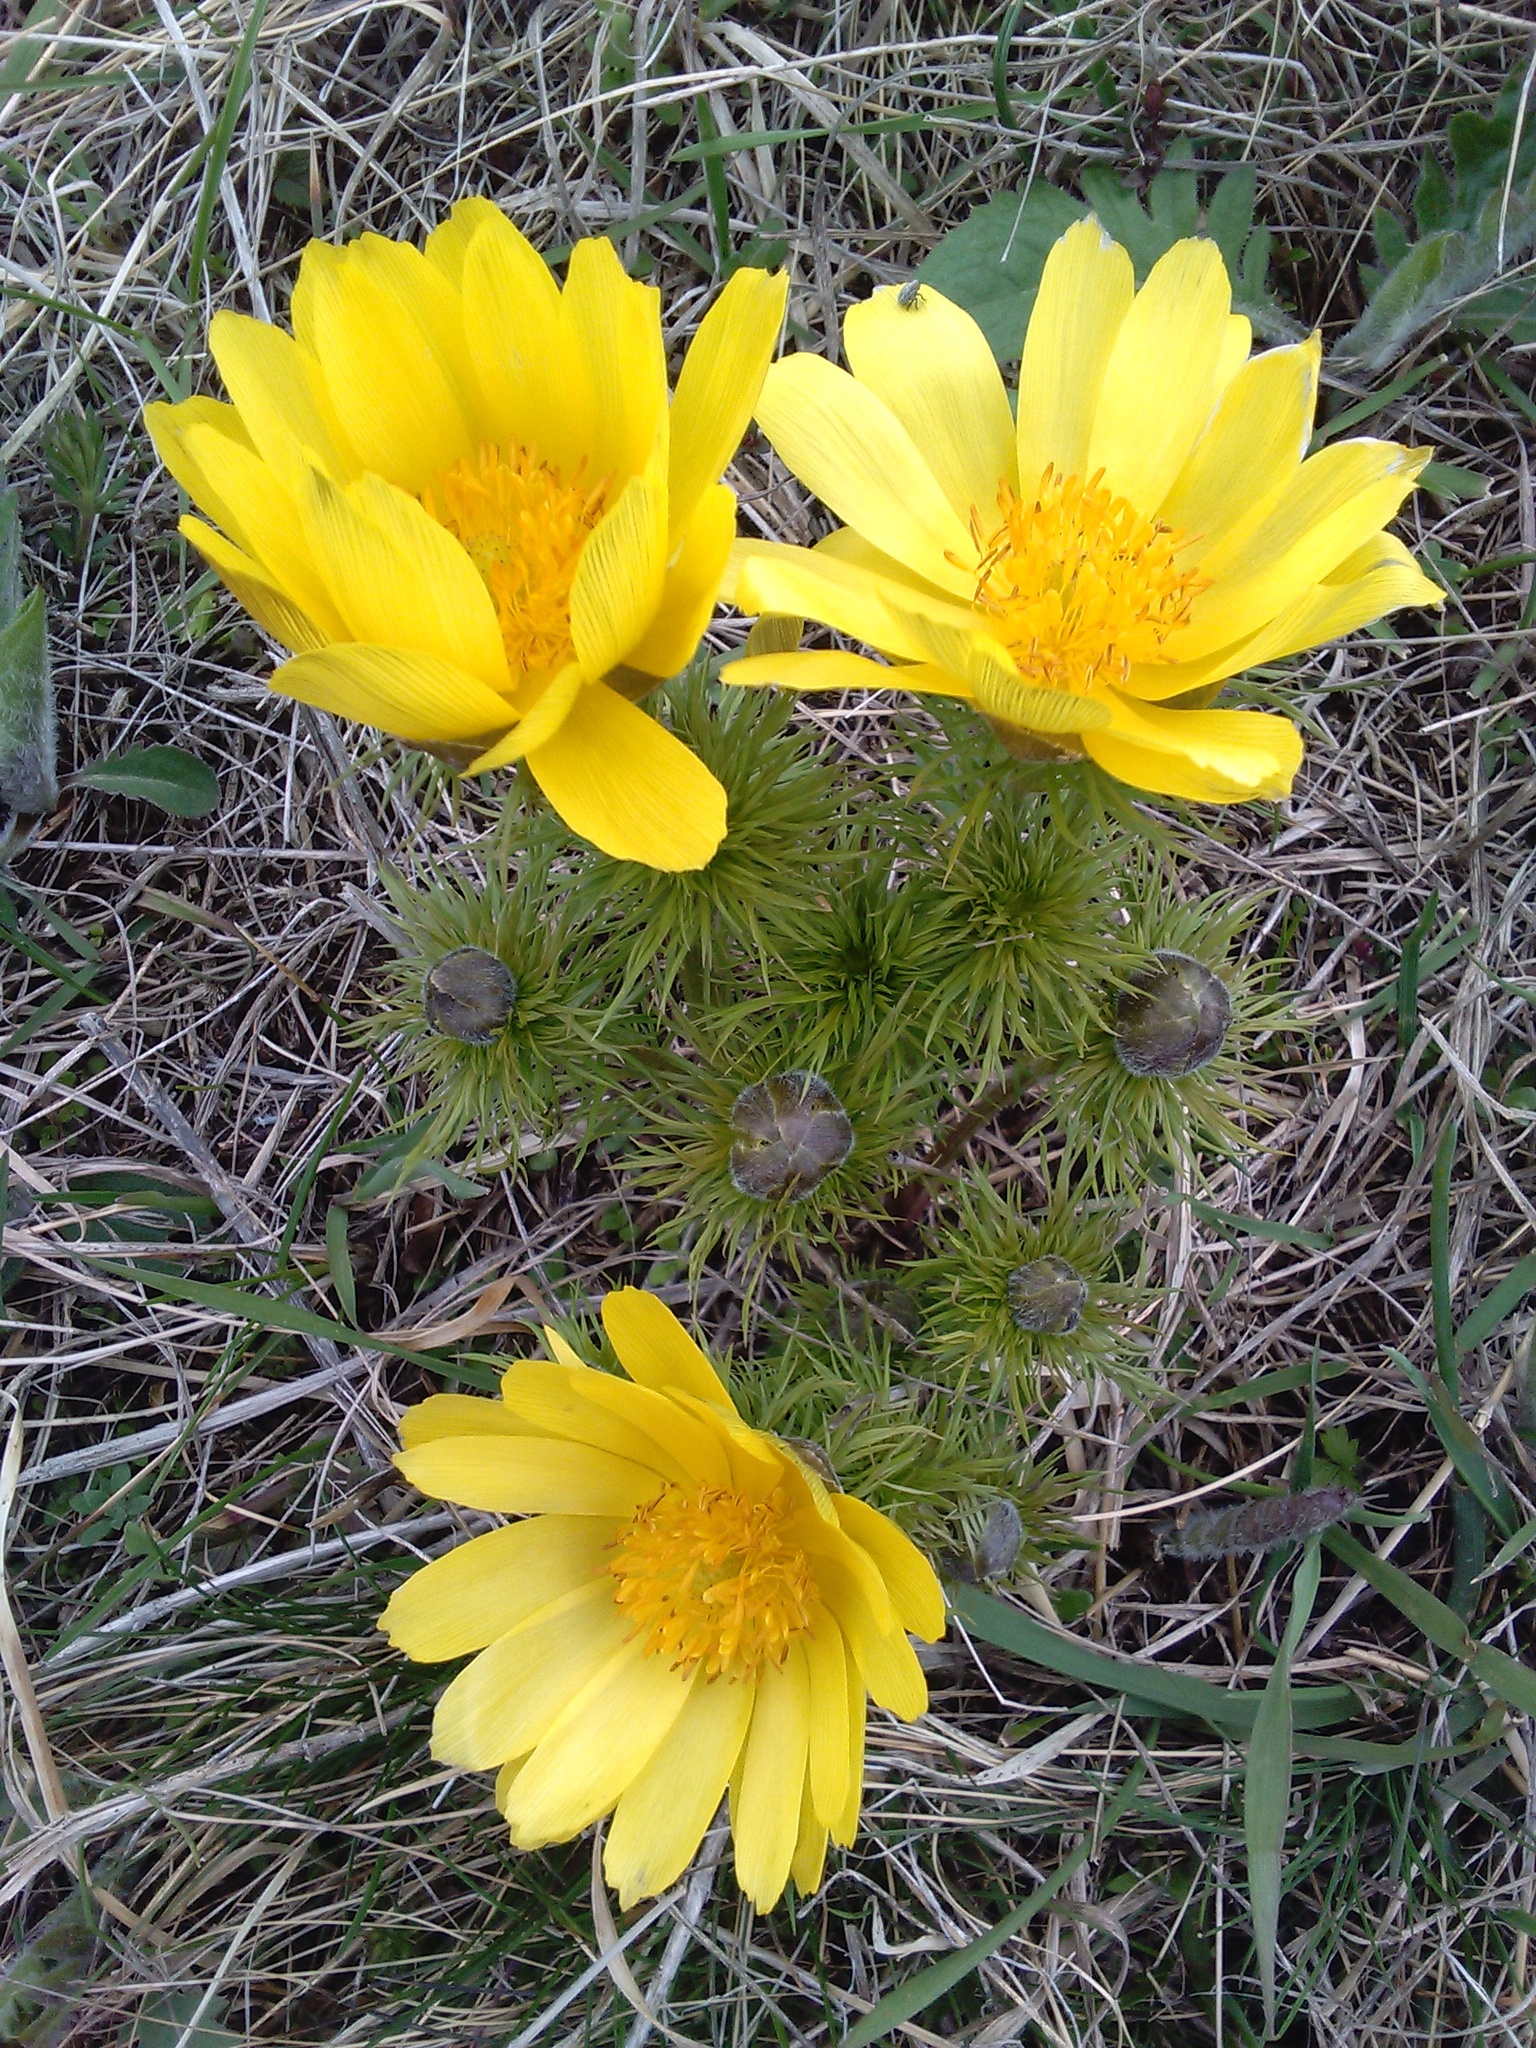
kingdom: Plantae
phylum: Tracheophyta
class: Magnoliopsida
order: Ranunculales
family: Ranunculaceae
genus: Adonis
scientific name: Adonis vernalis
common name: Yellow pheasants-eye
